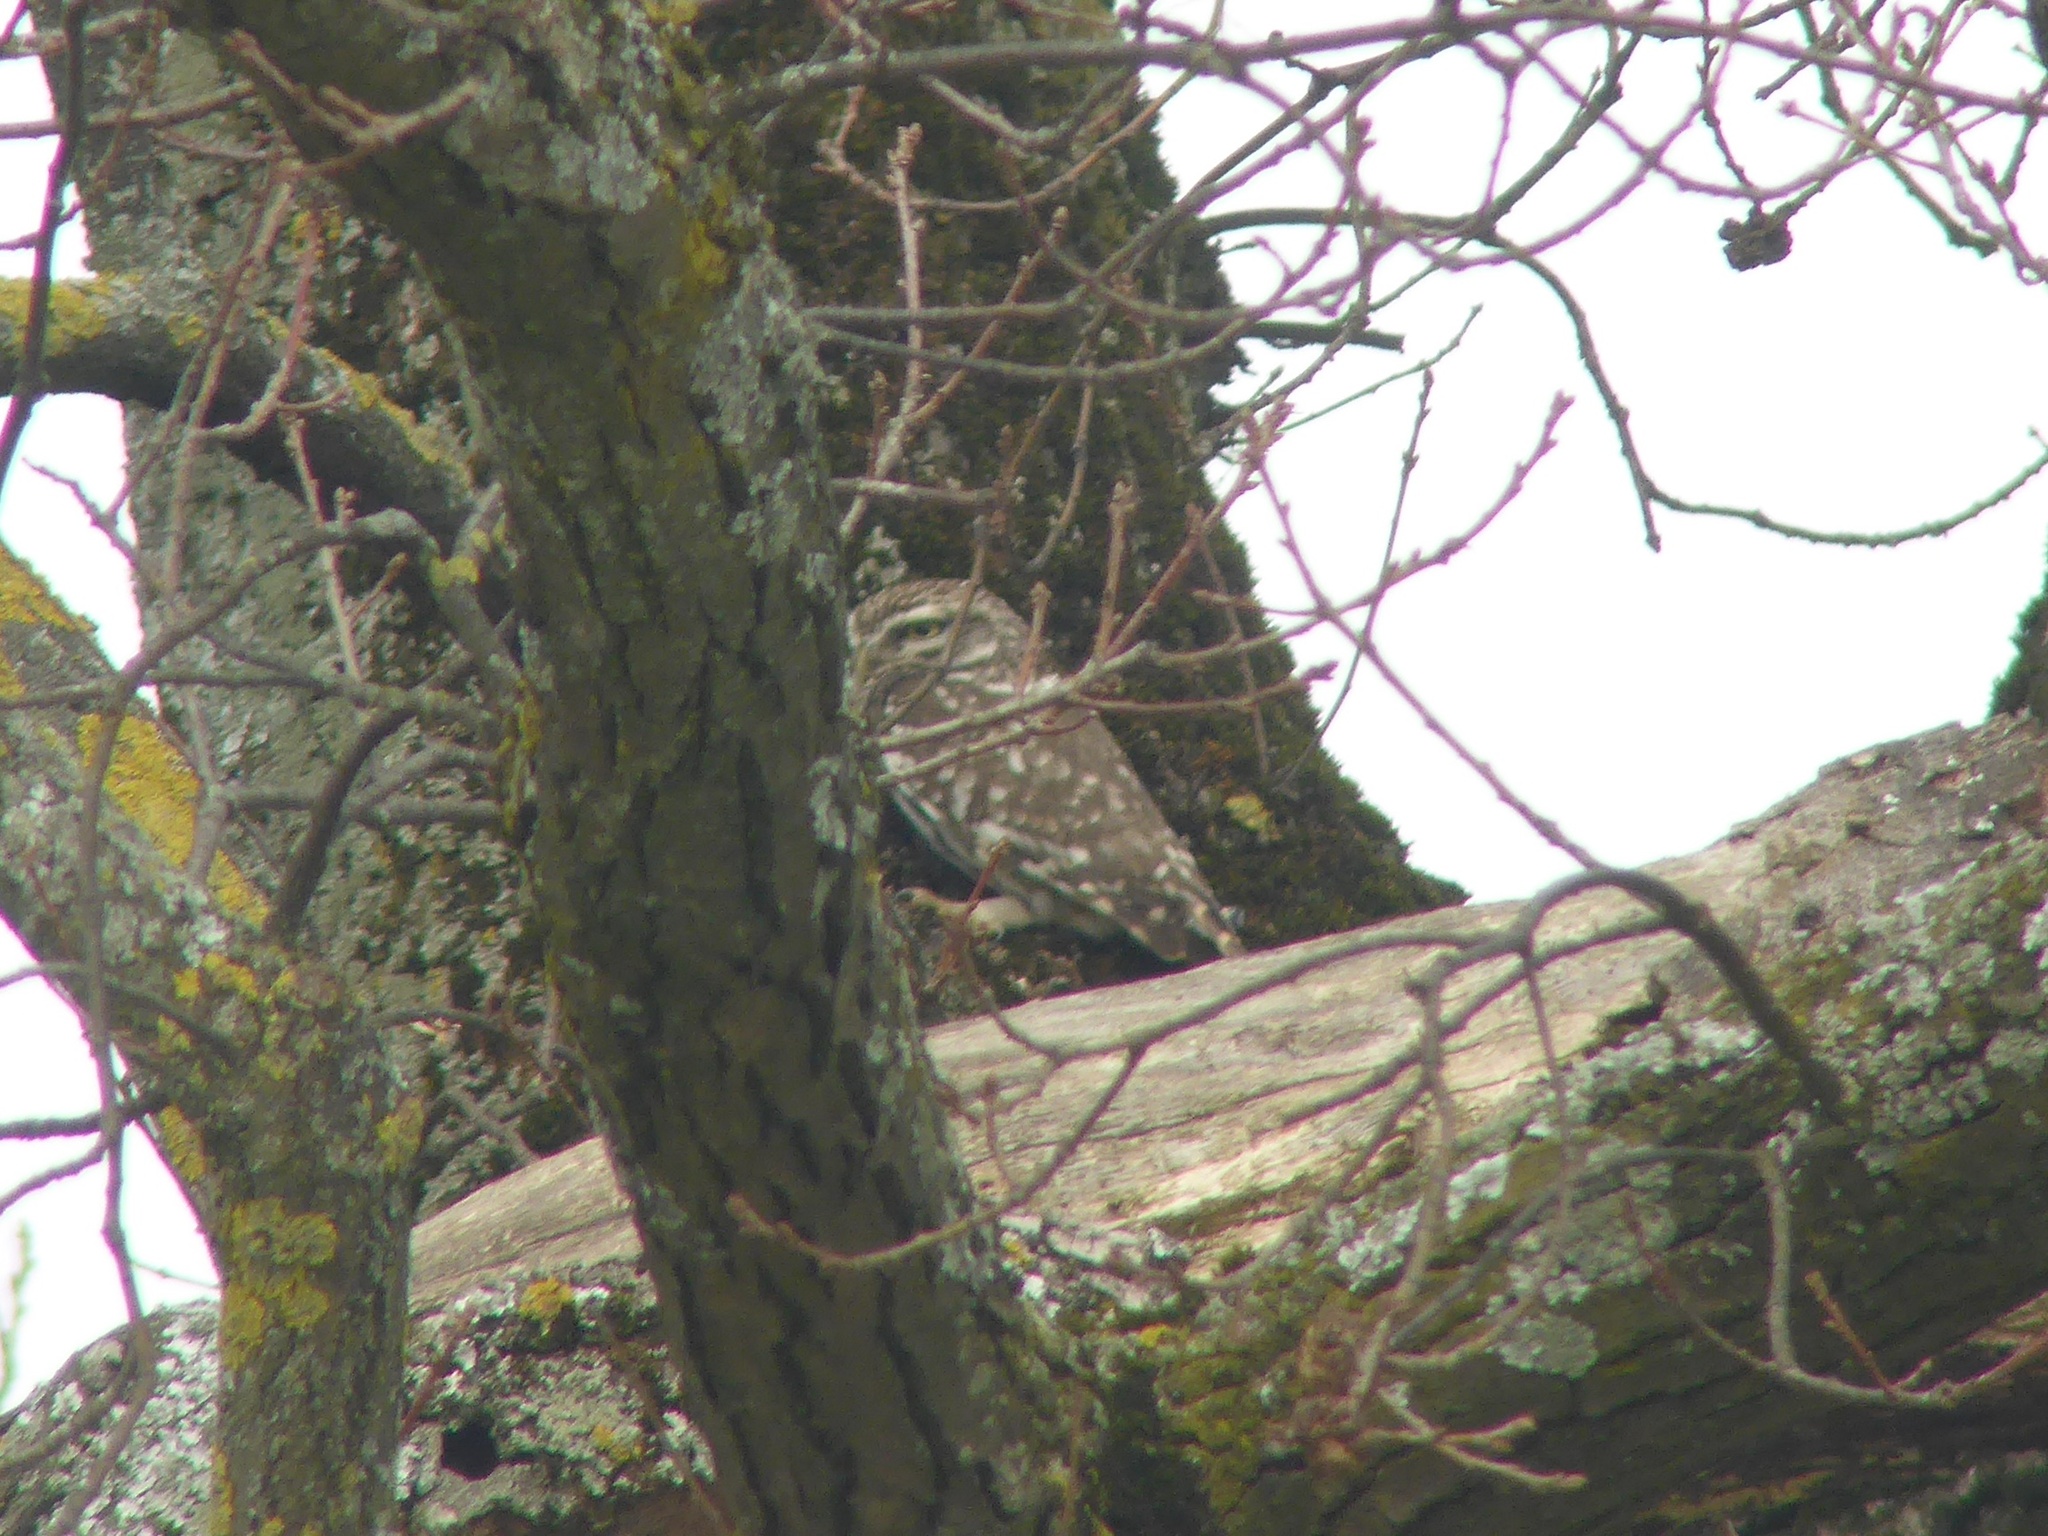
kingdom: Animalia
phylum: Chordata
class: Aves
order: Strigiformes
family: Strigidae
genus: Athene
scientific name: Athene noctua
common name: Little owl
